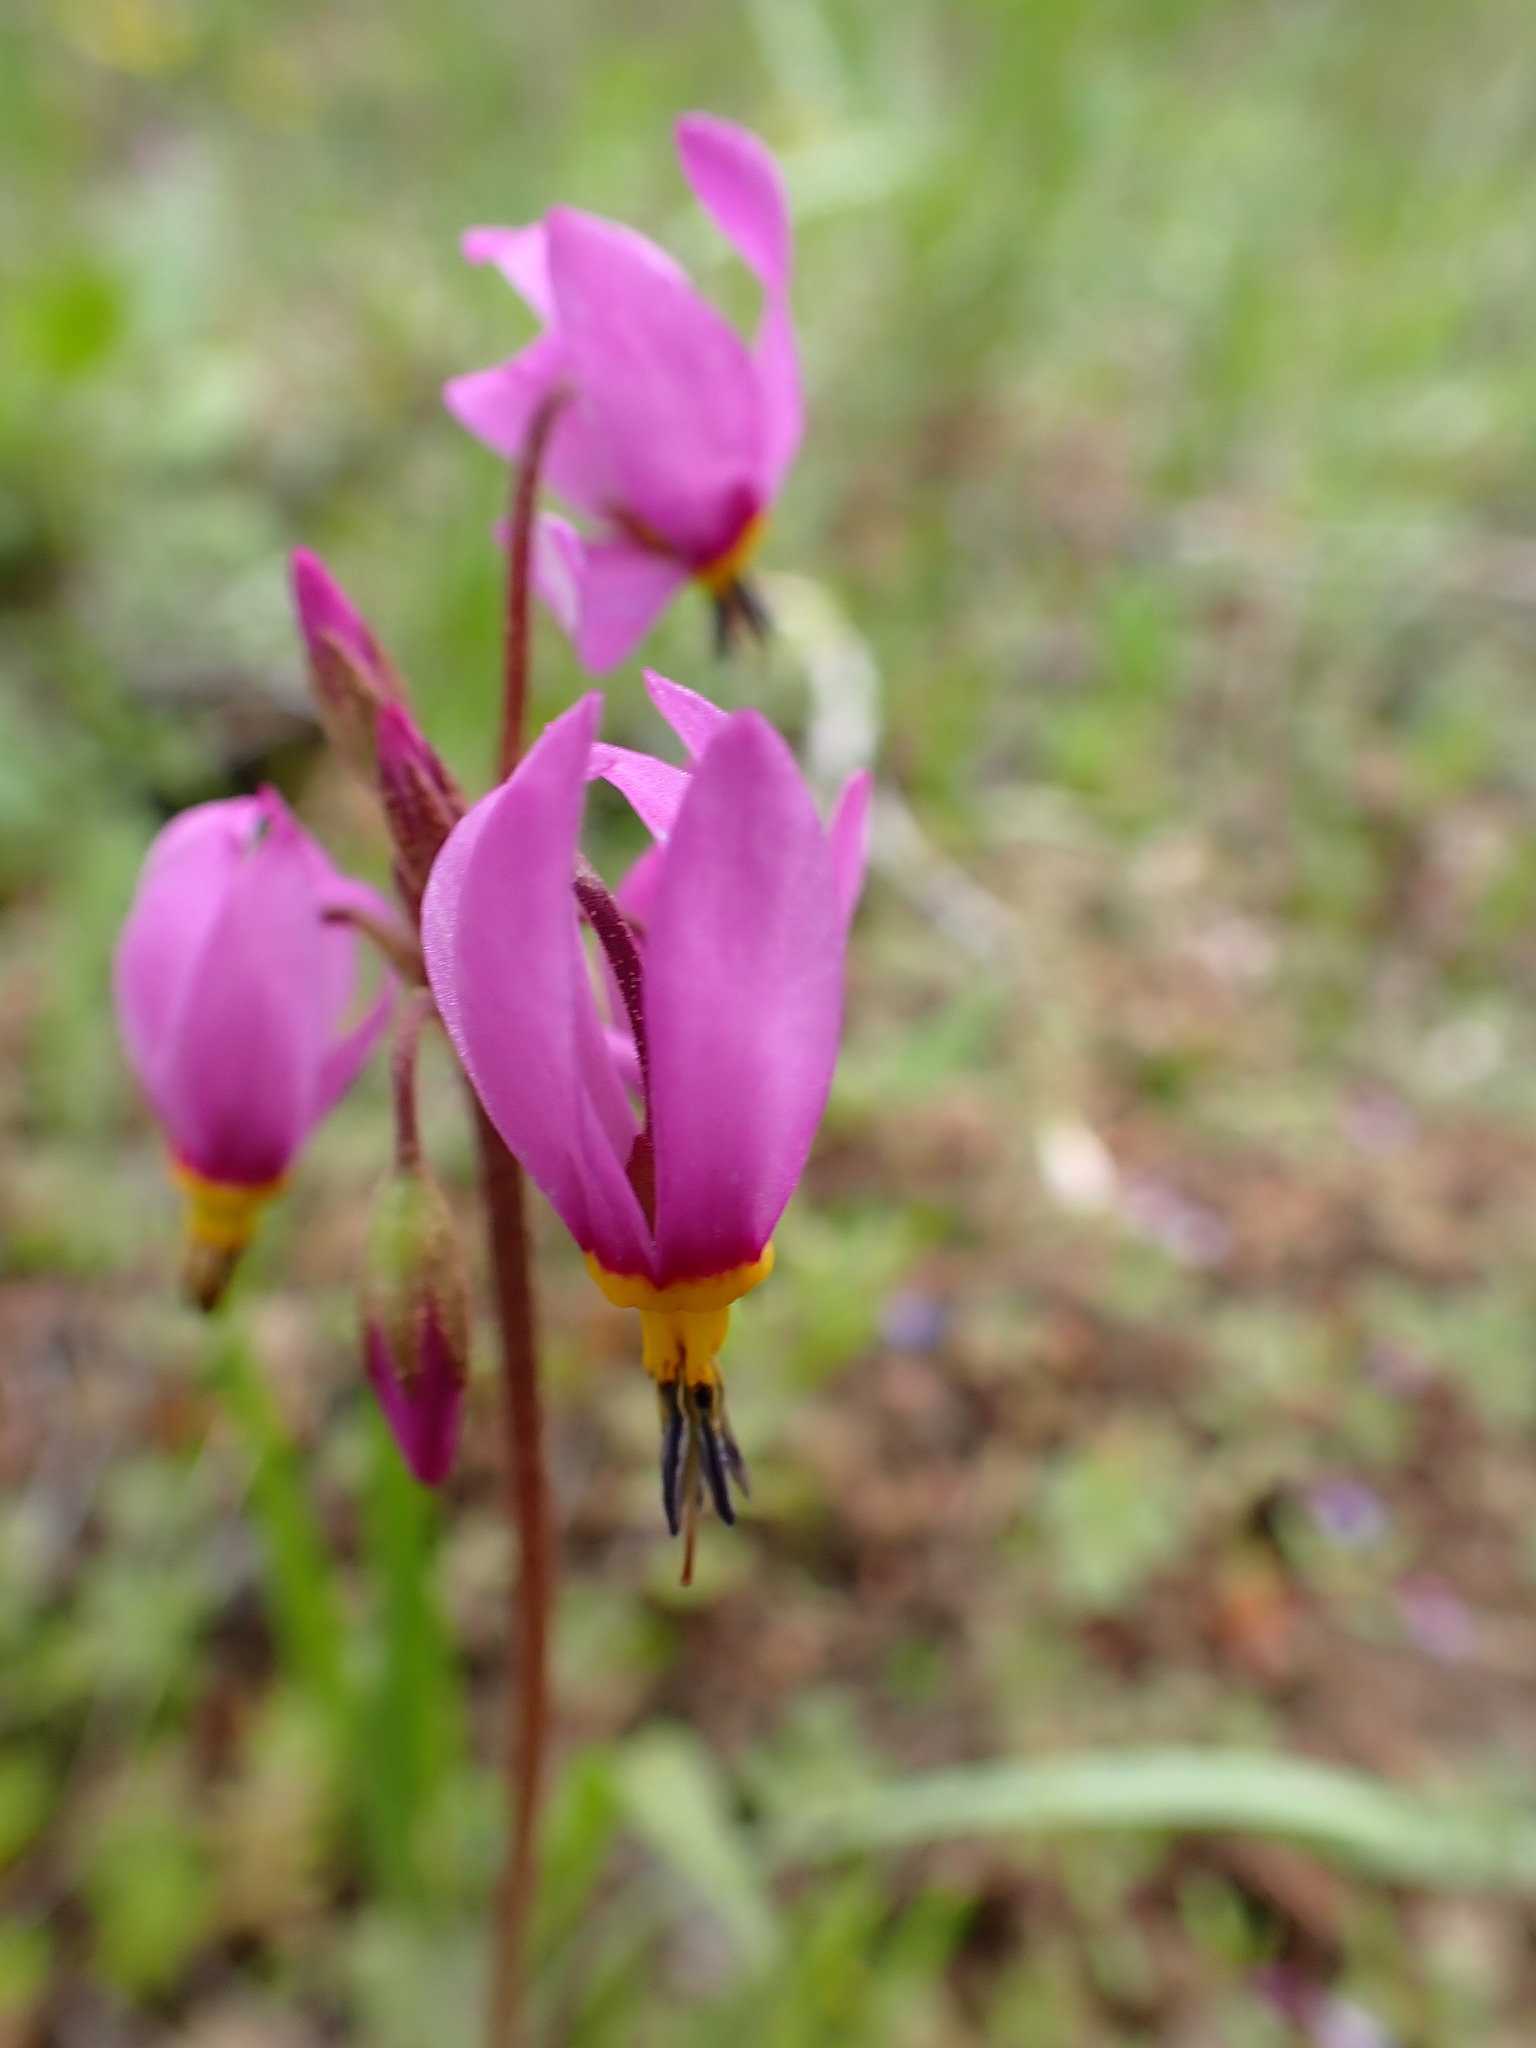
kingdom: Plantae
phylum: Tracheophyta
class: Magnoliopsida
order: Ericales
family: Primulaceae
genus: Dodecatheon
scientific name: Dodecatheon pulchellum
